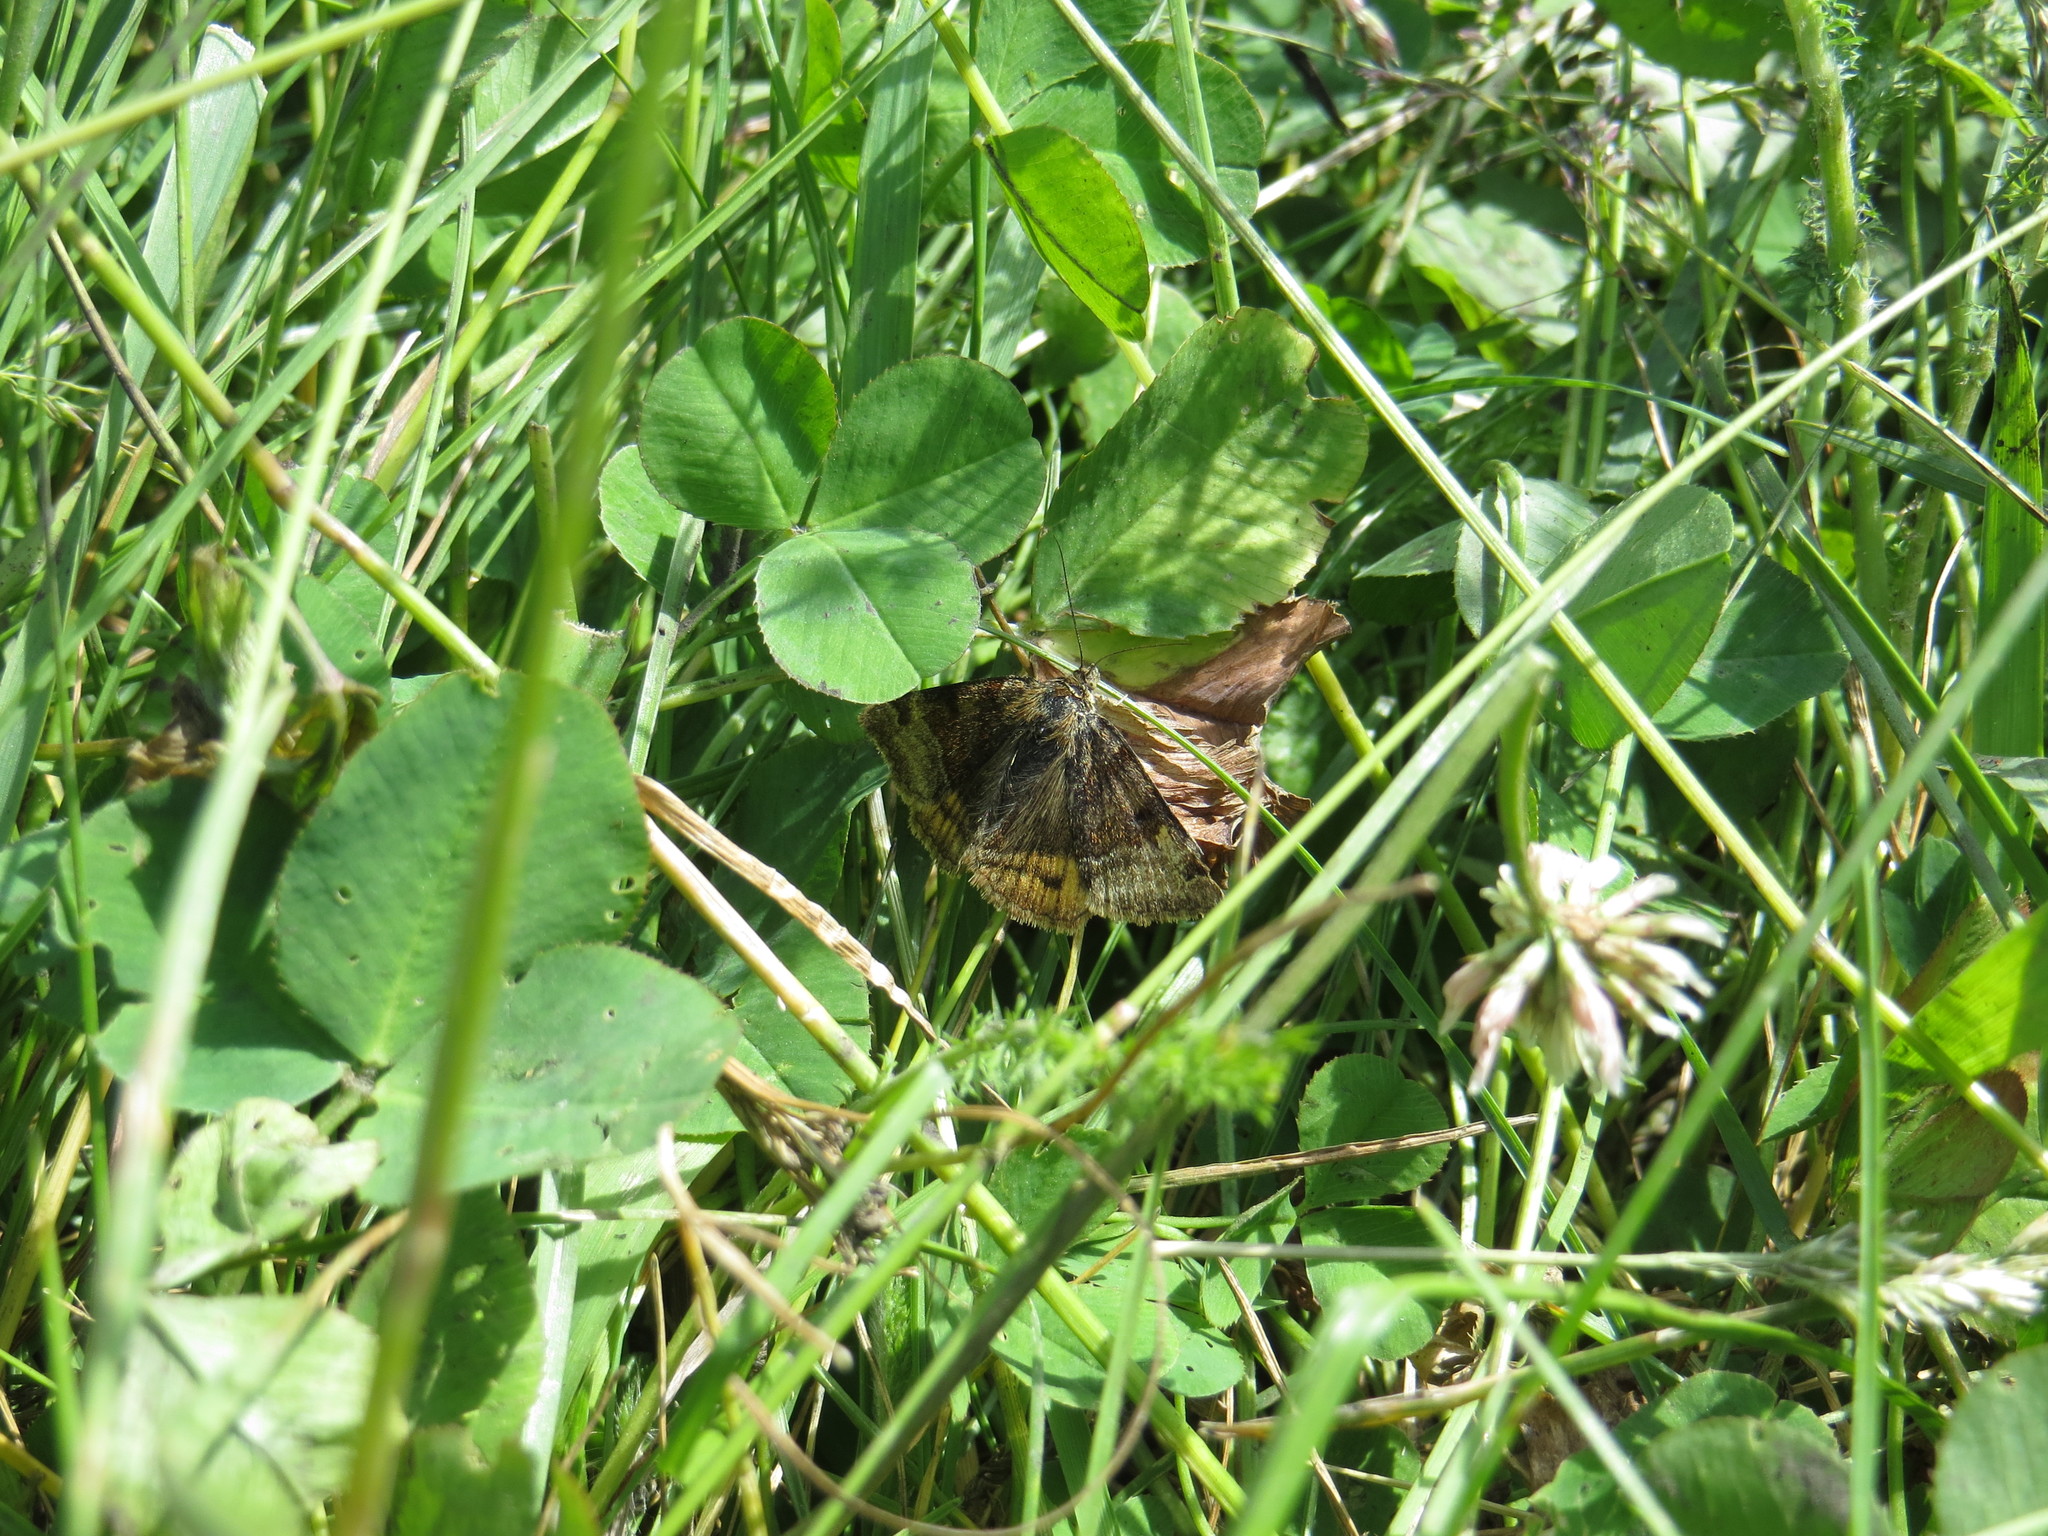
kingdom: Animalia
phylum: Arthropoda
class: Insecta
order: Lepidoptera
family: Erebidae
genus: Euclidia
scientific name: Euclidia glyphica
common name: Burnet companion
